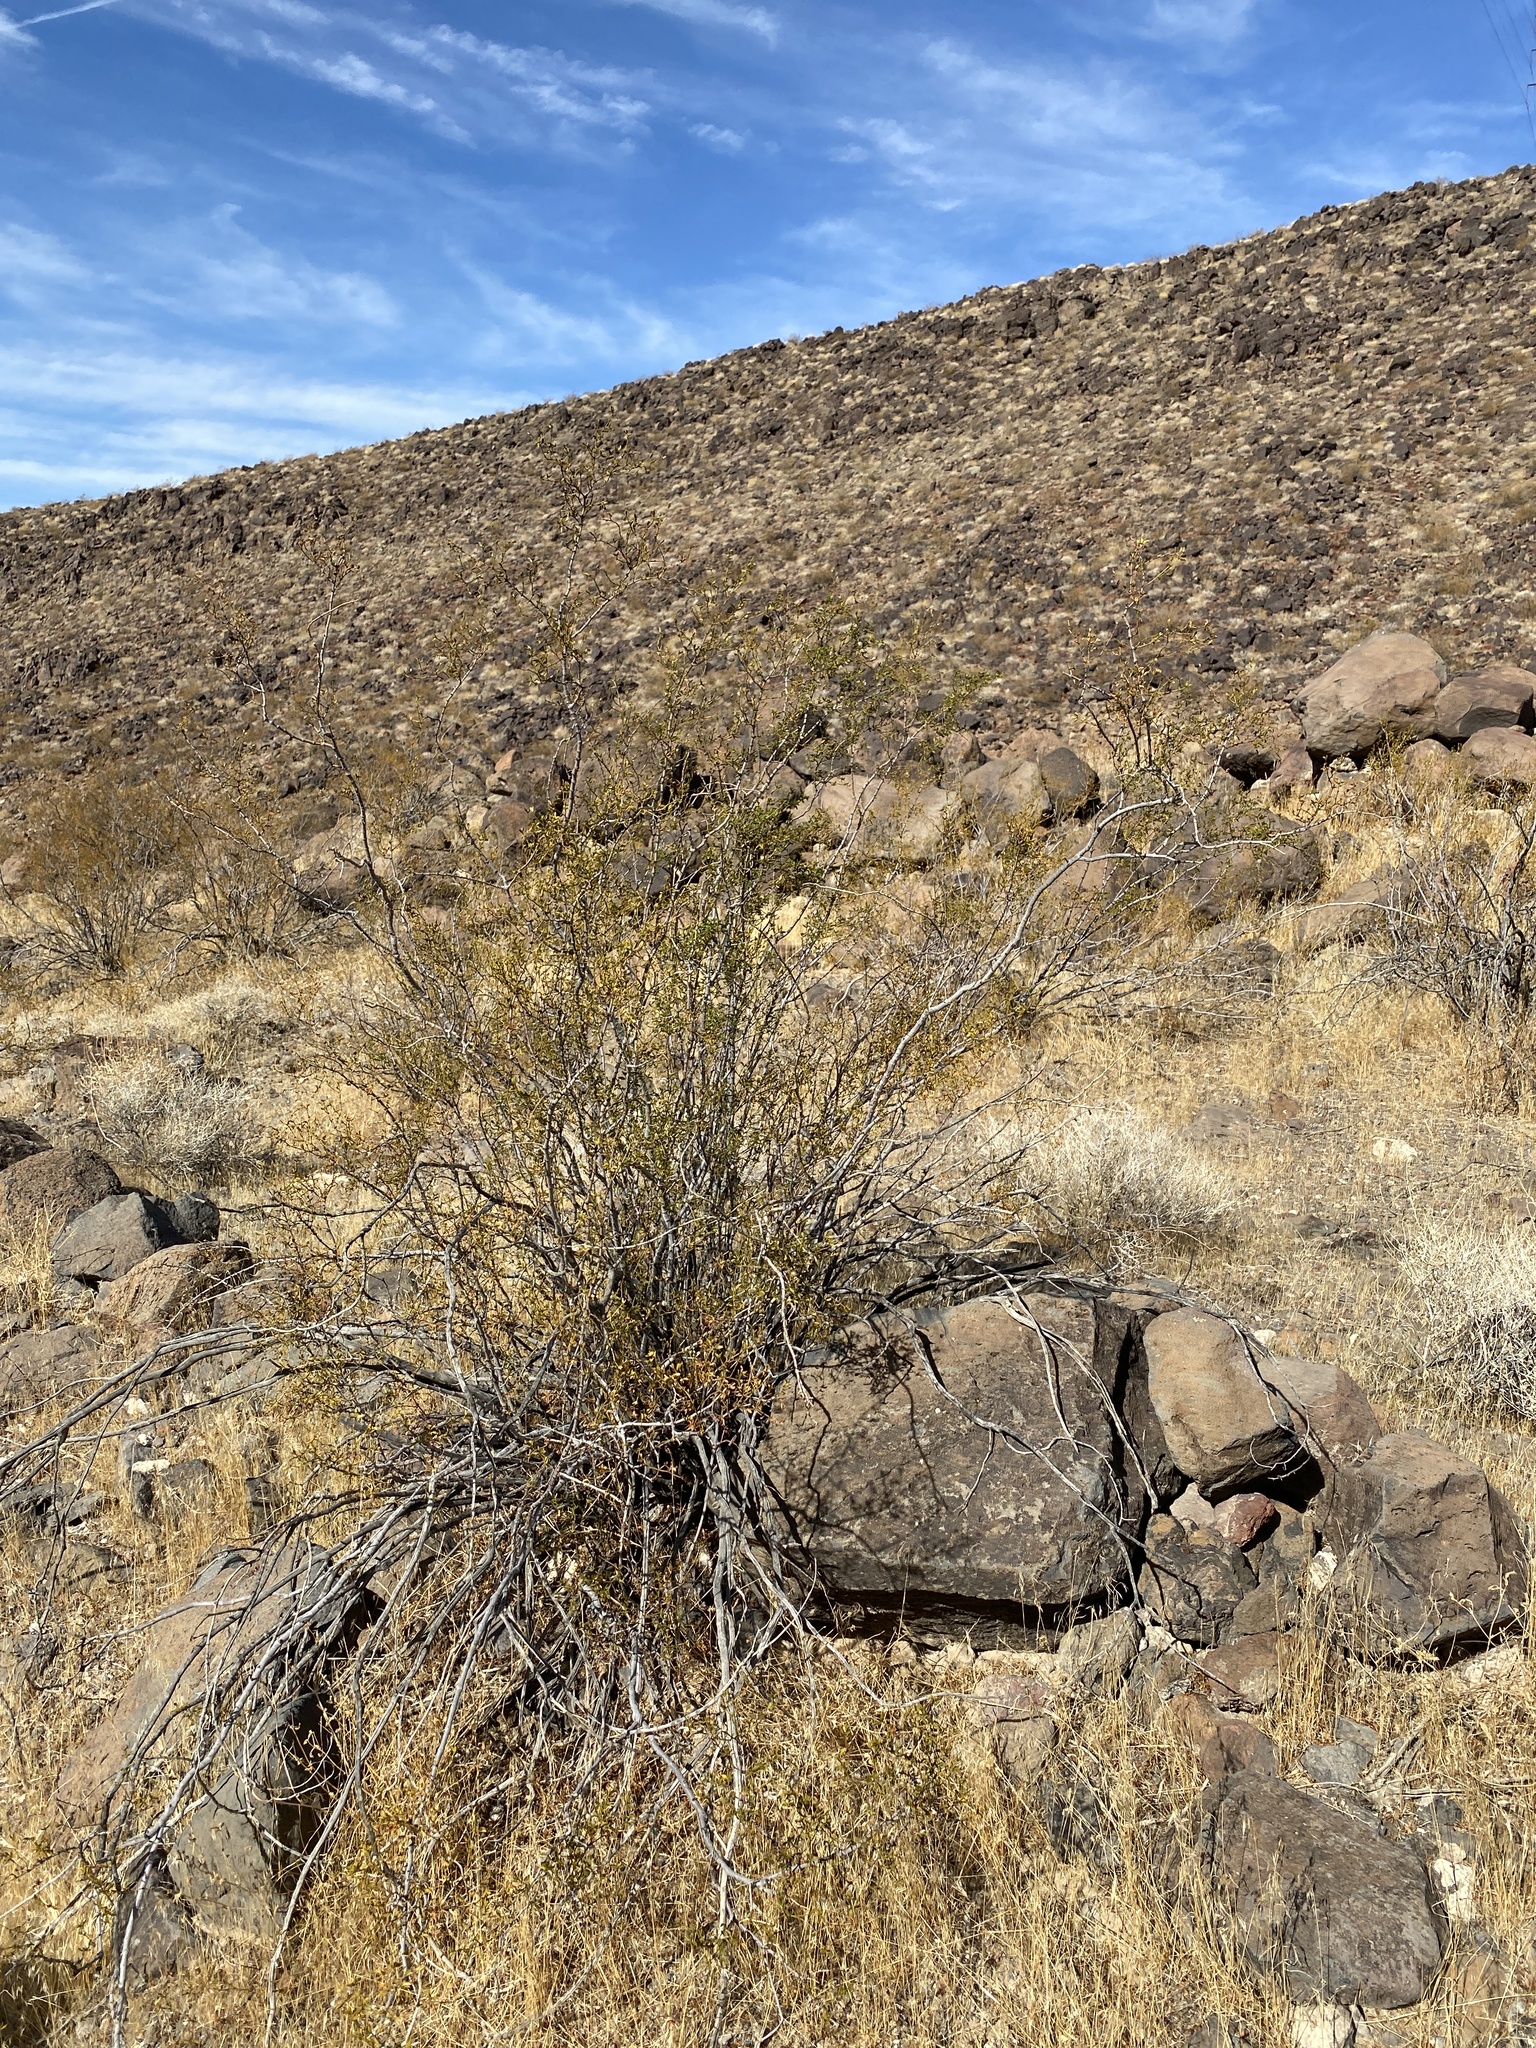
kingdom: Plantae
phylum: Tracheophyta
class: Magnoliopsida
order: Zygophyllales
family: Zygophyllaceae
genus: Larrea
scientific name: Larrea tridentata
